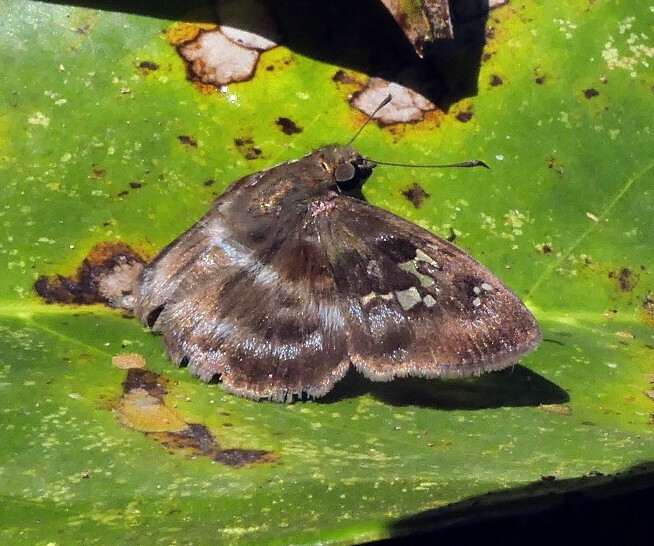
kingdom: Animalia
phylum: Arthropoda
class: Insecta
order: Lepidoptera
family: Hesperiidae
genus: Quadrus
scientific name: Quadrus cerialis
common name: Common blue-skipper
